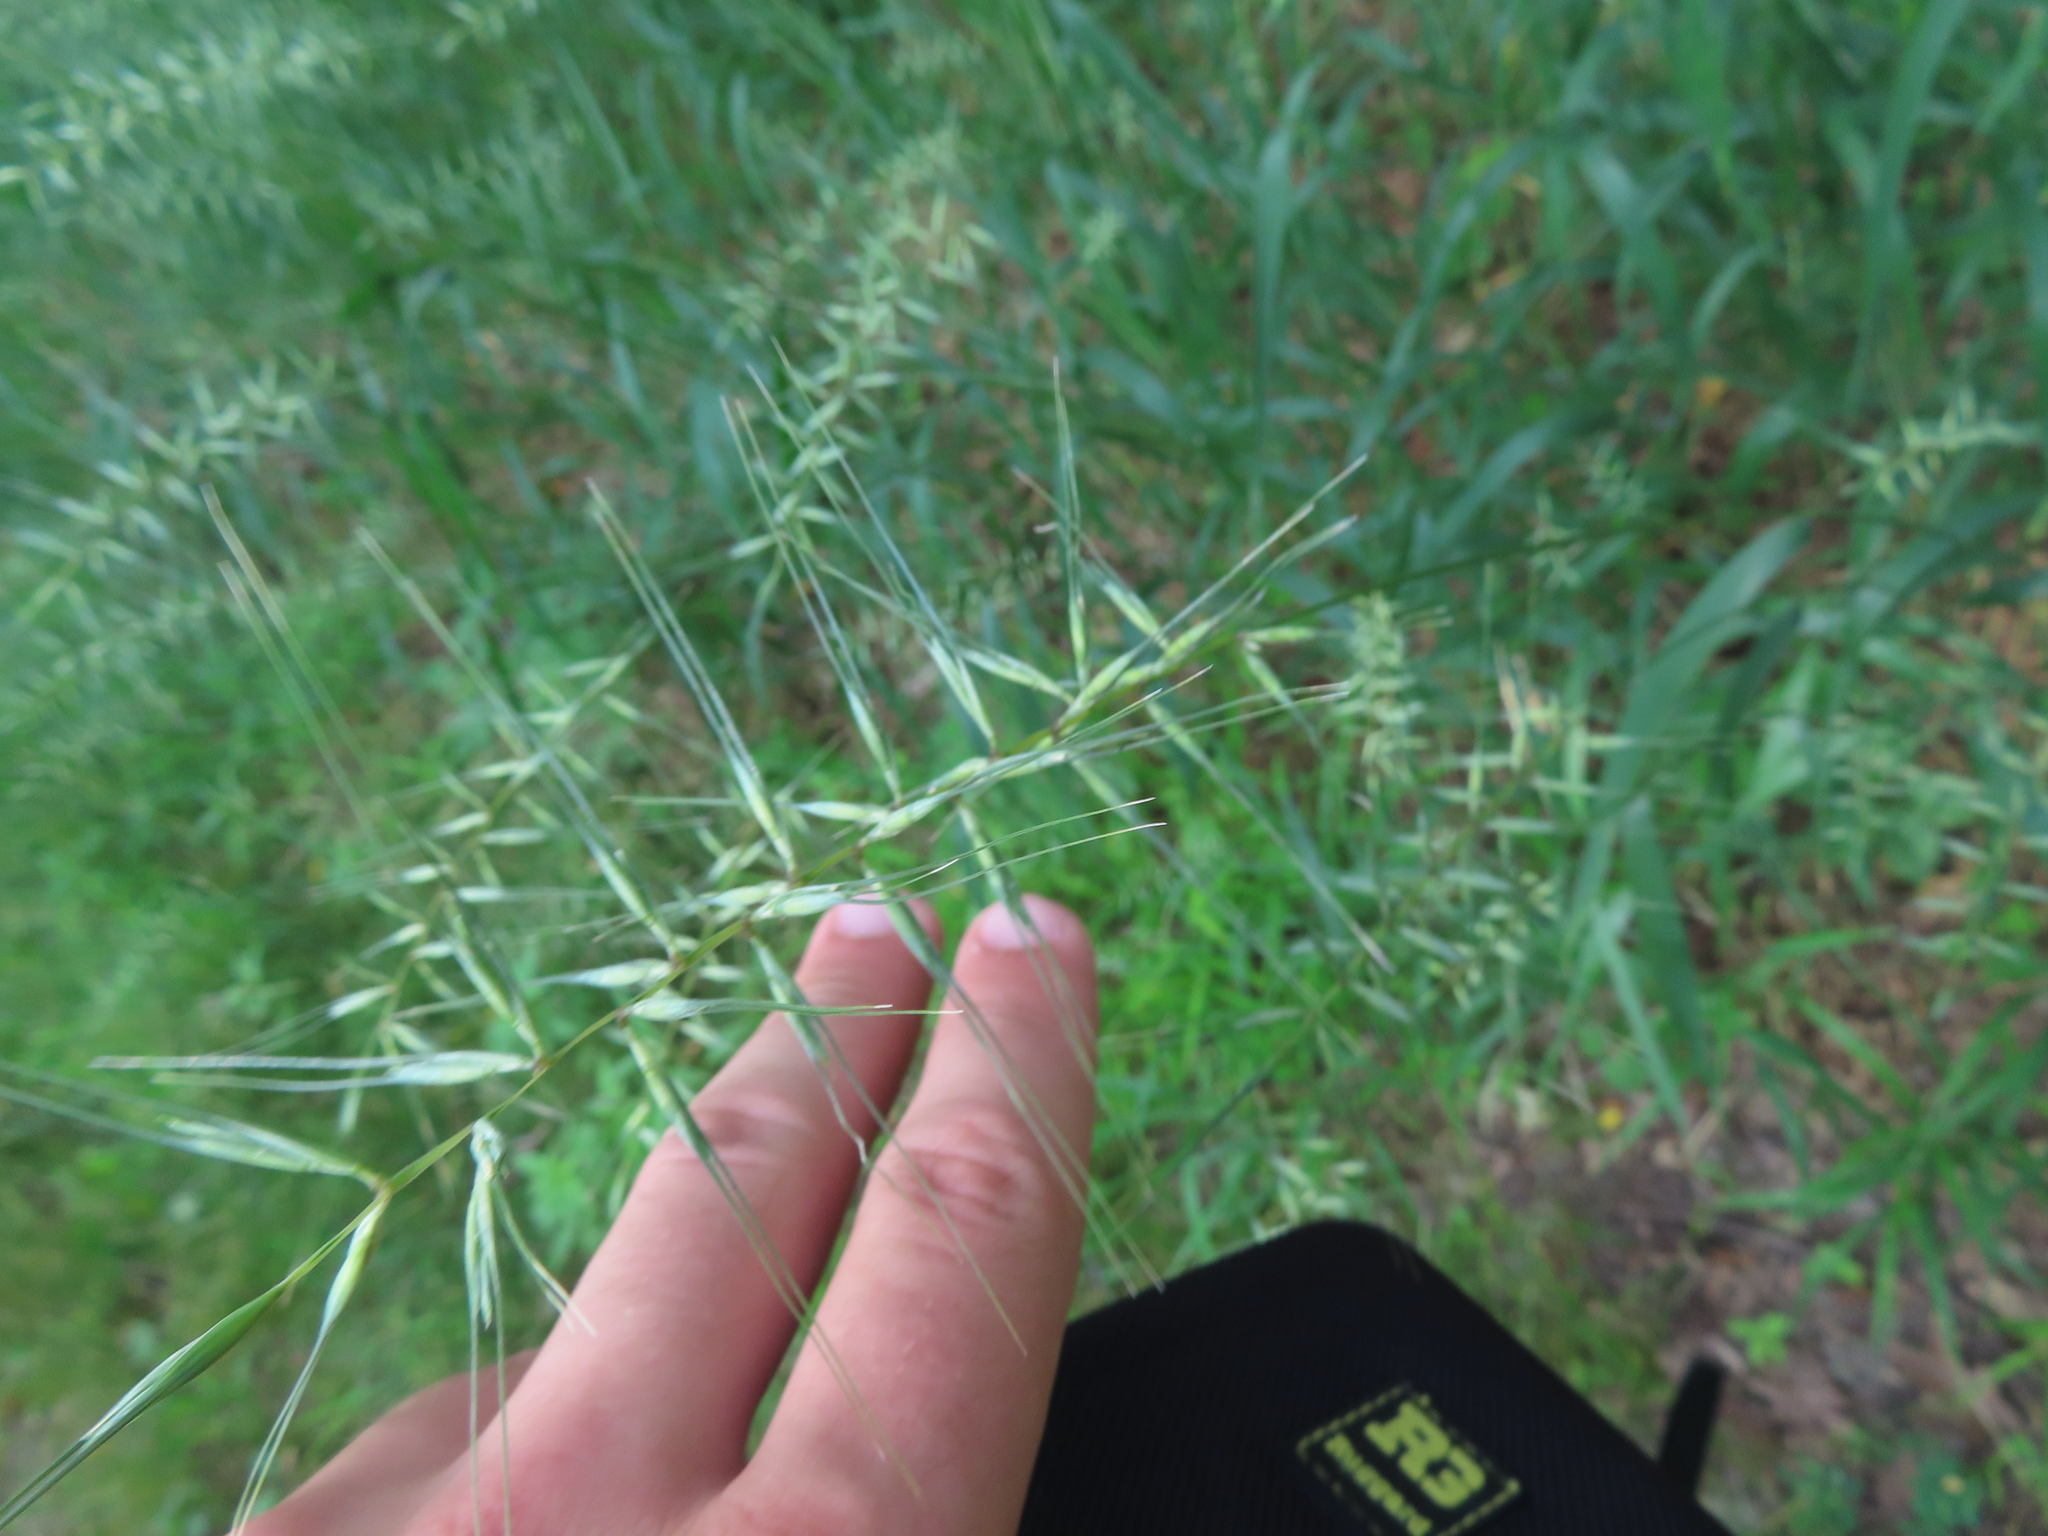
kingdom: Plantae
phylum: Tracheophyta
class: Liliopsida
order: Poales
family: Poaceae
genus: Elymus
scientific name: Elymus hystrix
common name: Bottlebrush grass
